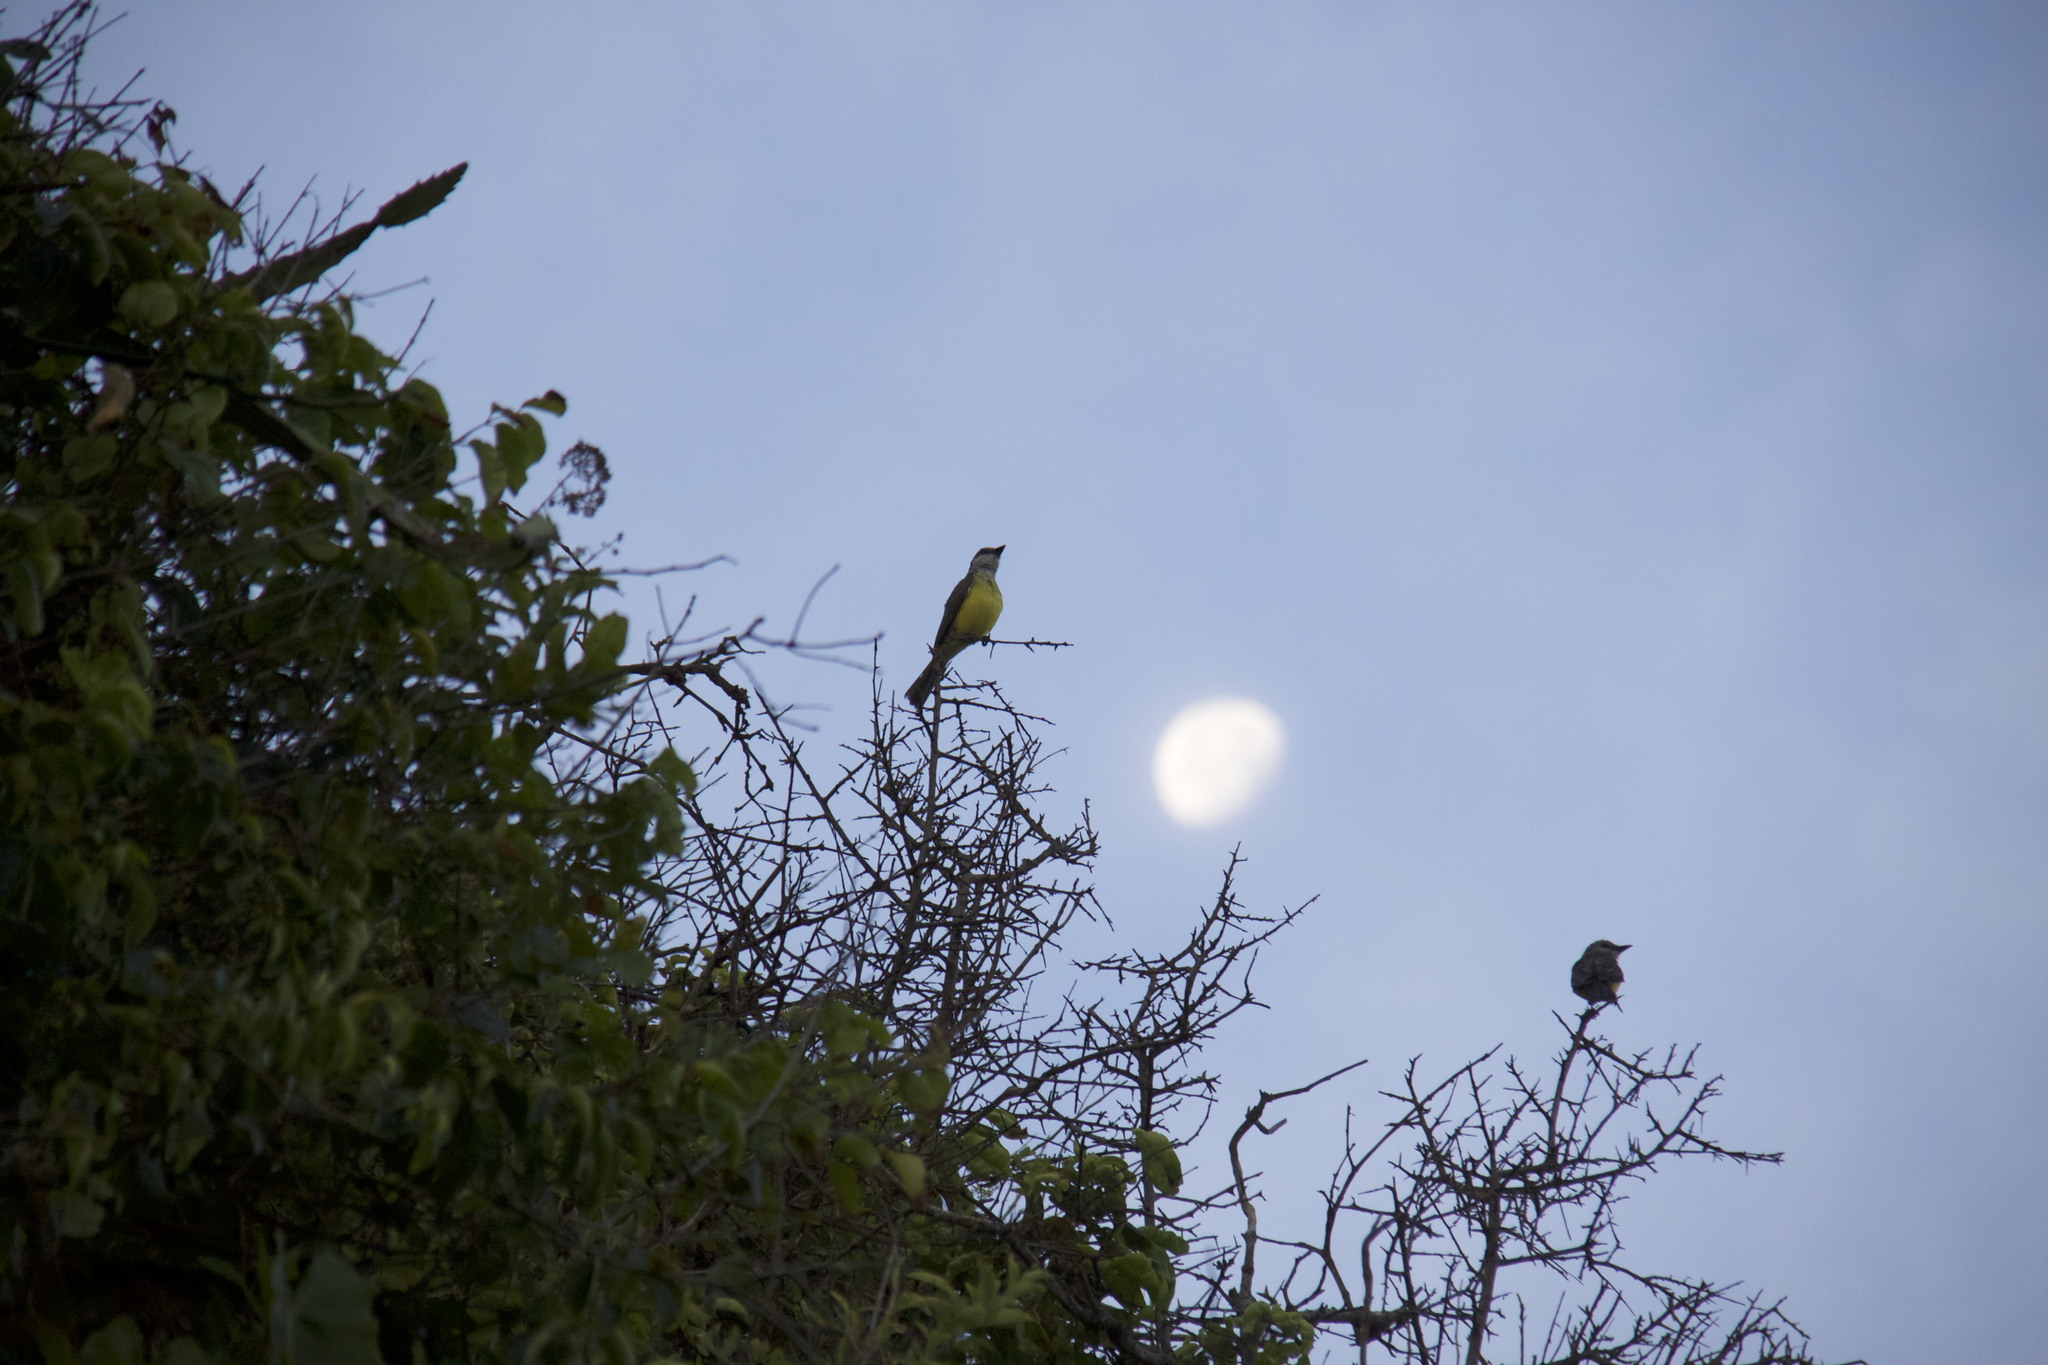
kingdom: Animalia
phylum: Chordata
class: Aves
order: Passeriformes
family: Tyrannidae
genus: Tyrannus
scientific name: Tyrannus melancholicus
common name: Tropical kingbird
